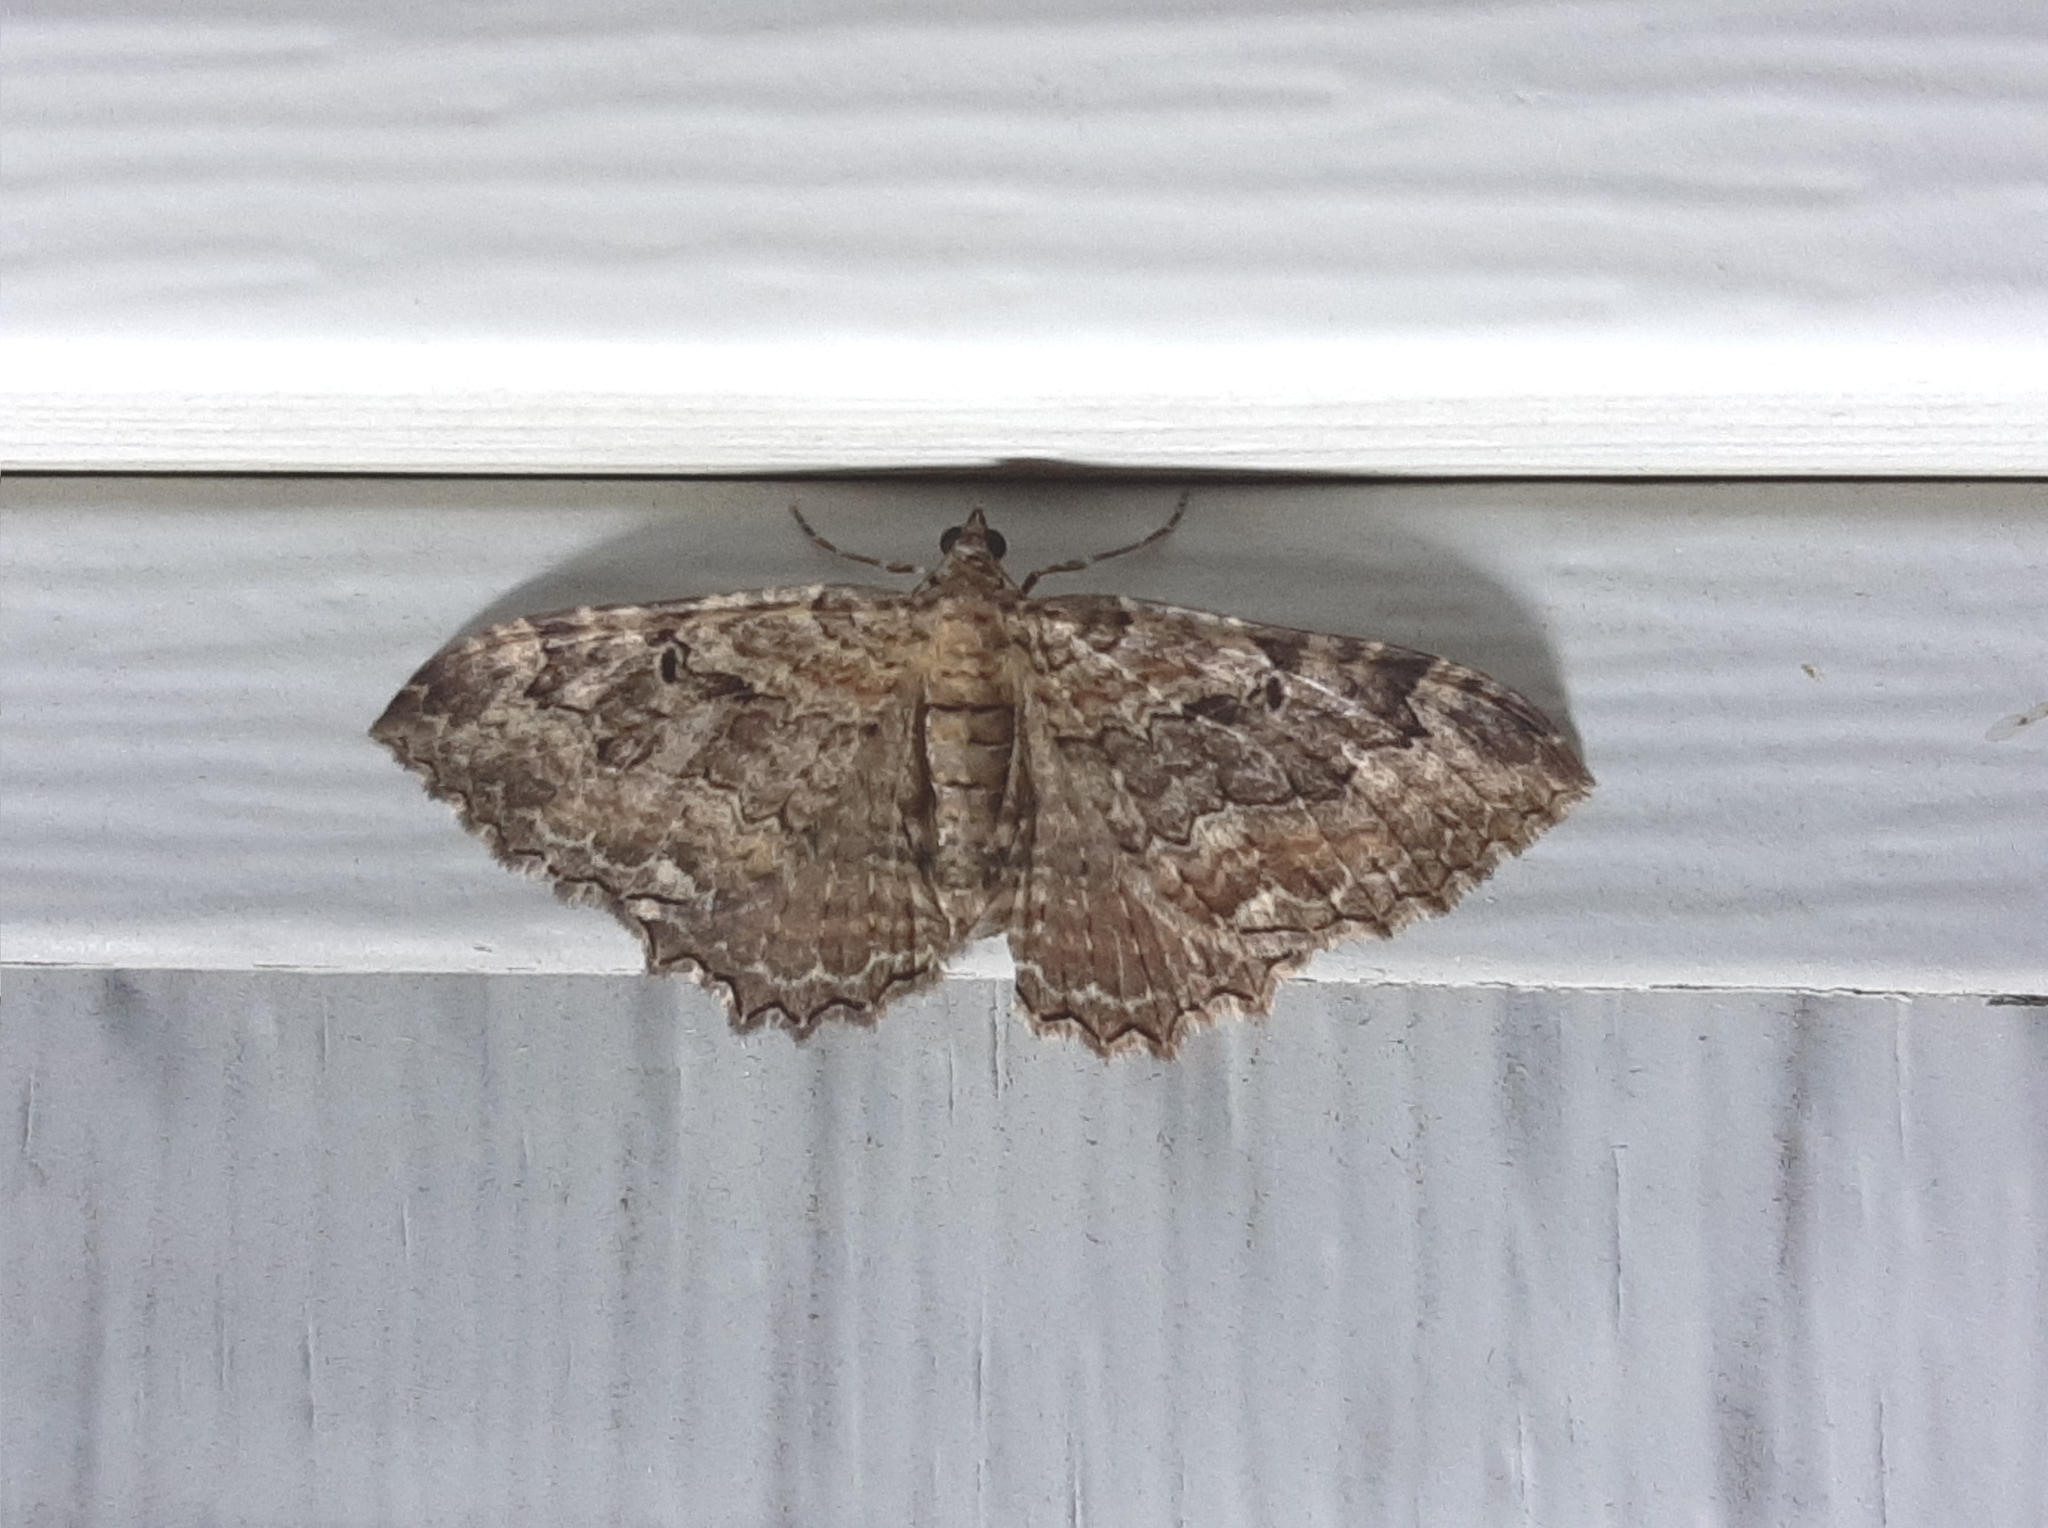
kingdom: Animalia
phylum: Arthropoda
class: Insecta
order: Lepidoptera
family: Geometridae
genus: Rheumaptera
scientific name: Rheumaptera
